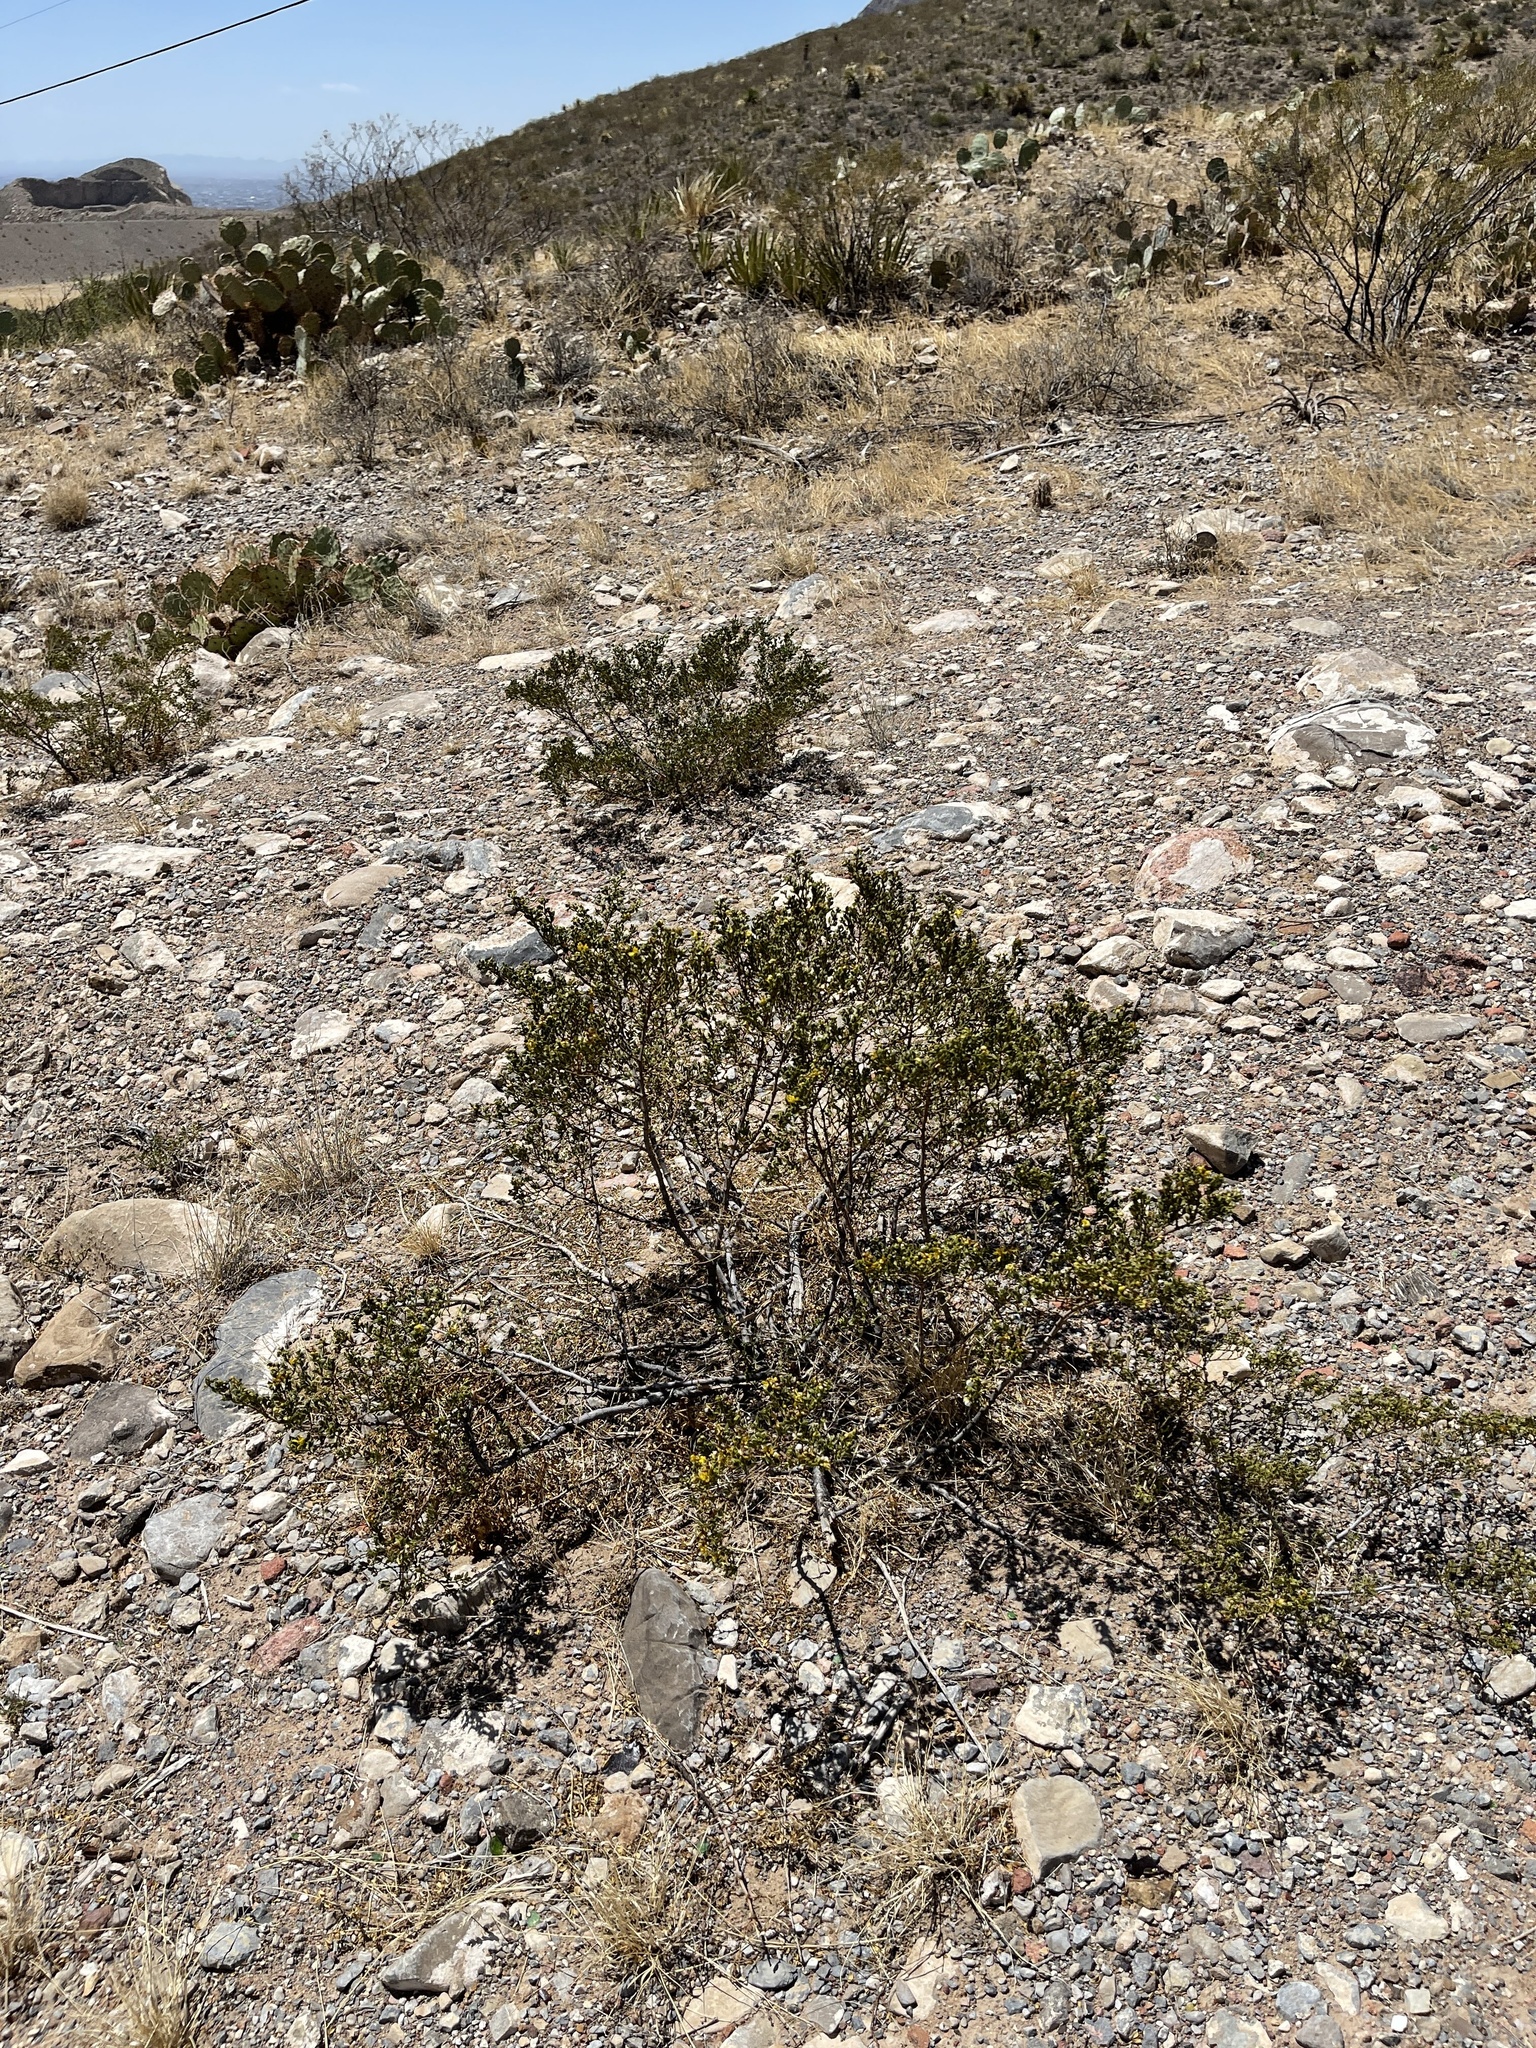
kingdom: Plantae
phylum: Tracheophyta
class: Magnoliopsida
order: Zygophyllales
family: Zygophyllaceae
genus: Larrea
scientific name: Larrea tridentata
